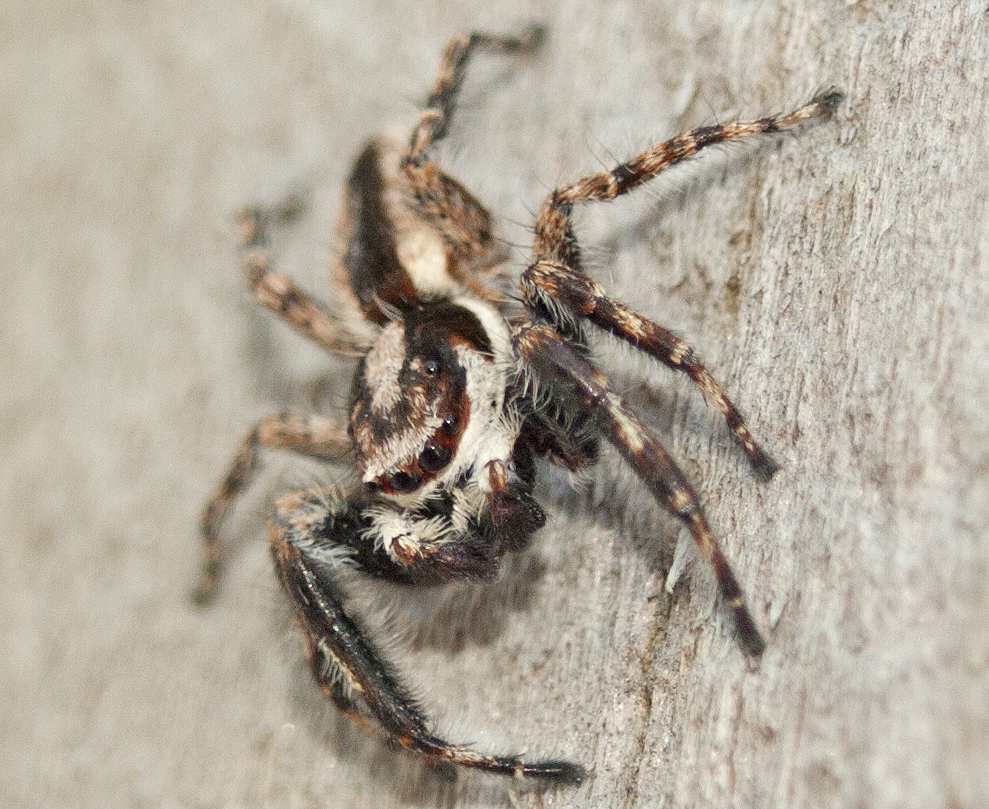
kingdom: Animalia
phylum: Arthropoda
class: Arachnida
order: Araneae
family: Salticidae
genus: Menemerus
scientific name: Menemerus bivittatus
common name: Gray wall jumper
